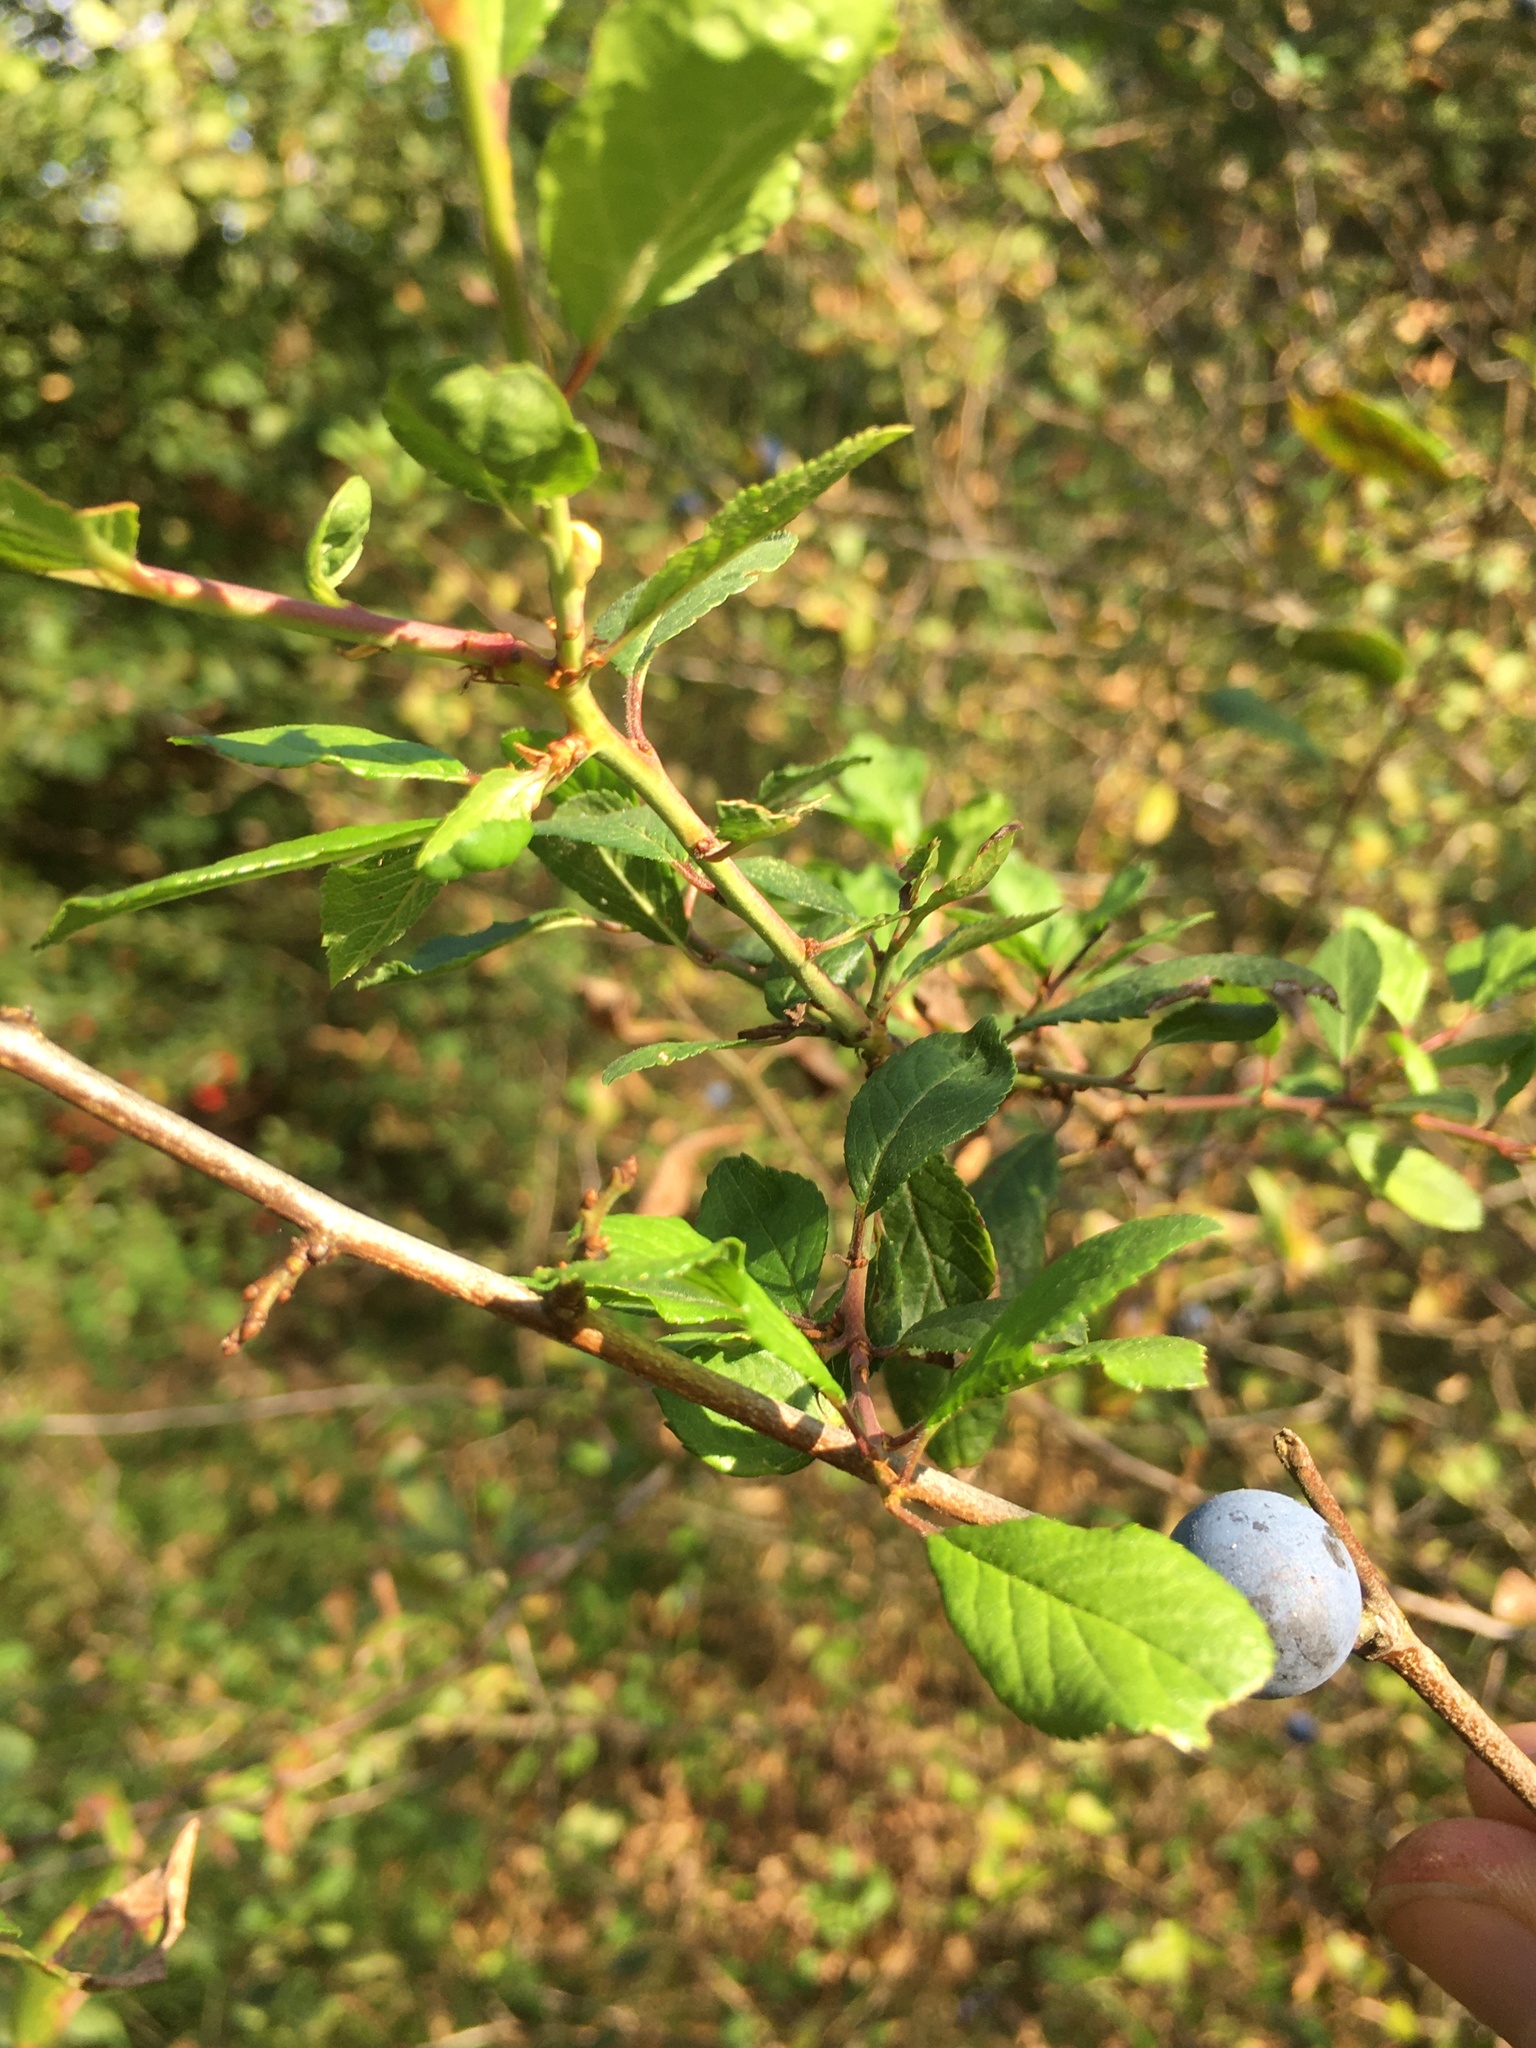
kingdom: Plantae
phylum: Tracheophyta
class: Magnoliopsida
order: Rosales
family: Rosaceae
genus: Prunus
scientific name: Prunus spinosa
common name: Blackthorn
